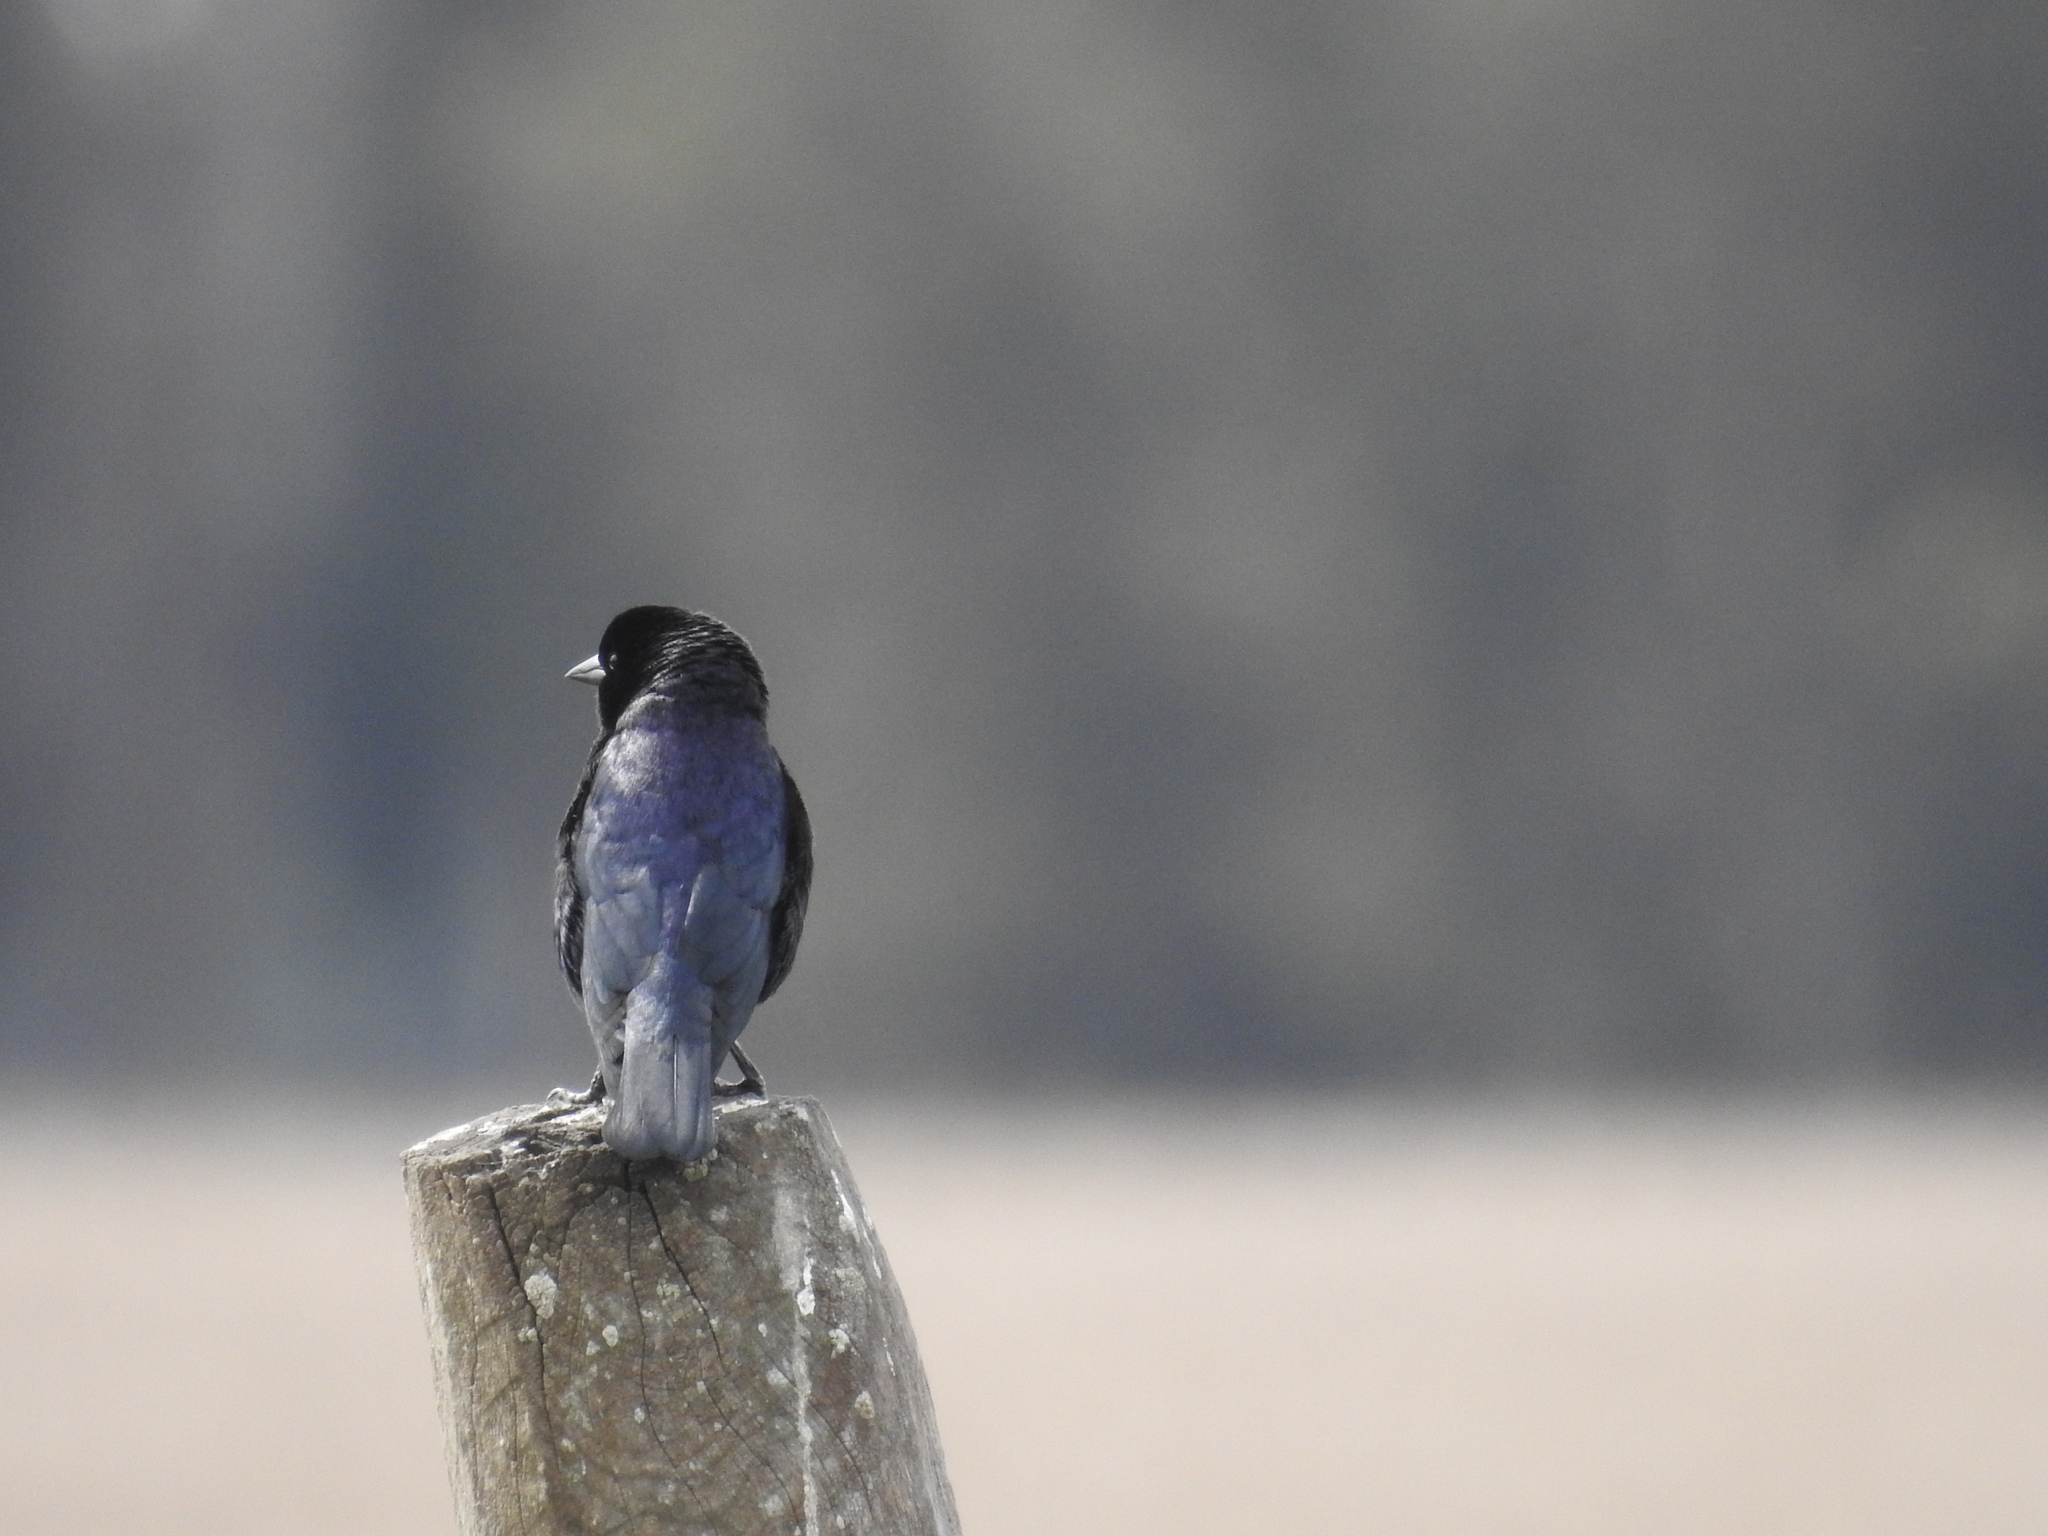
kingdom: Animalia
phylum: Chordata
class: Aves
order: Passeriformes
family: Icteridae
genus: Molothrus
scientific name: Molothrus bonariensis
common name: Shiny cowbird
